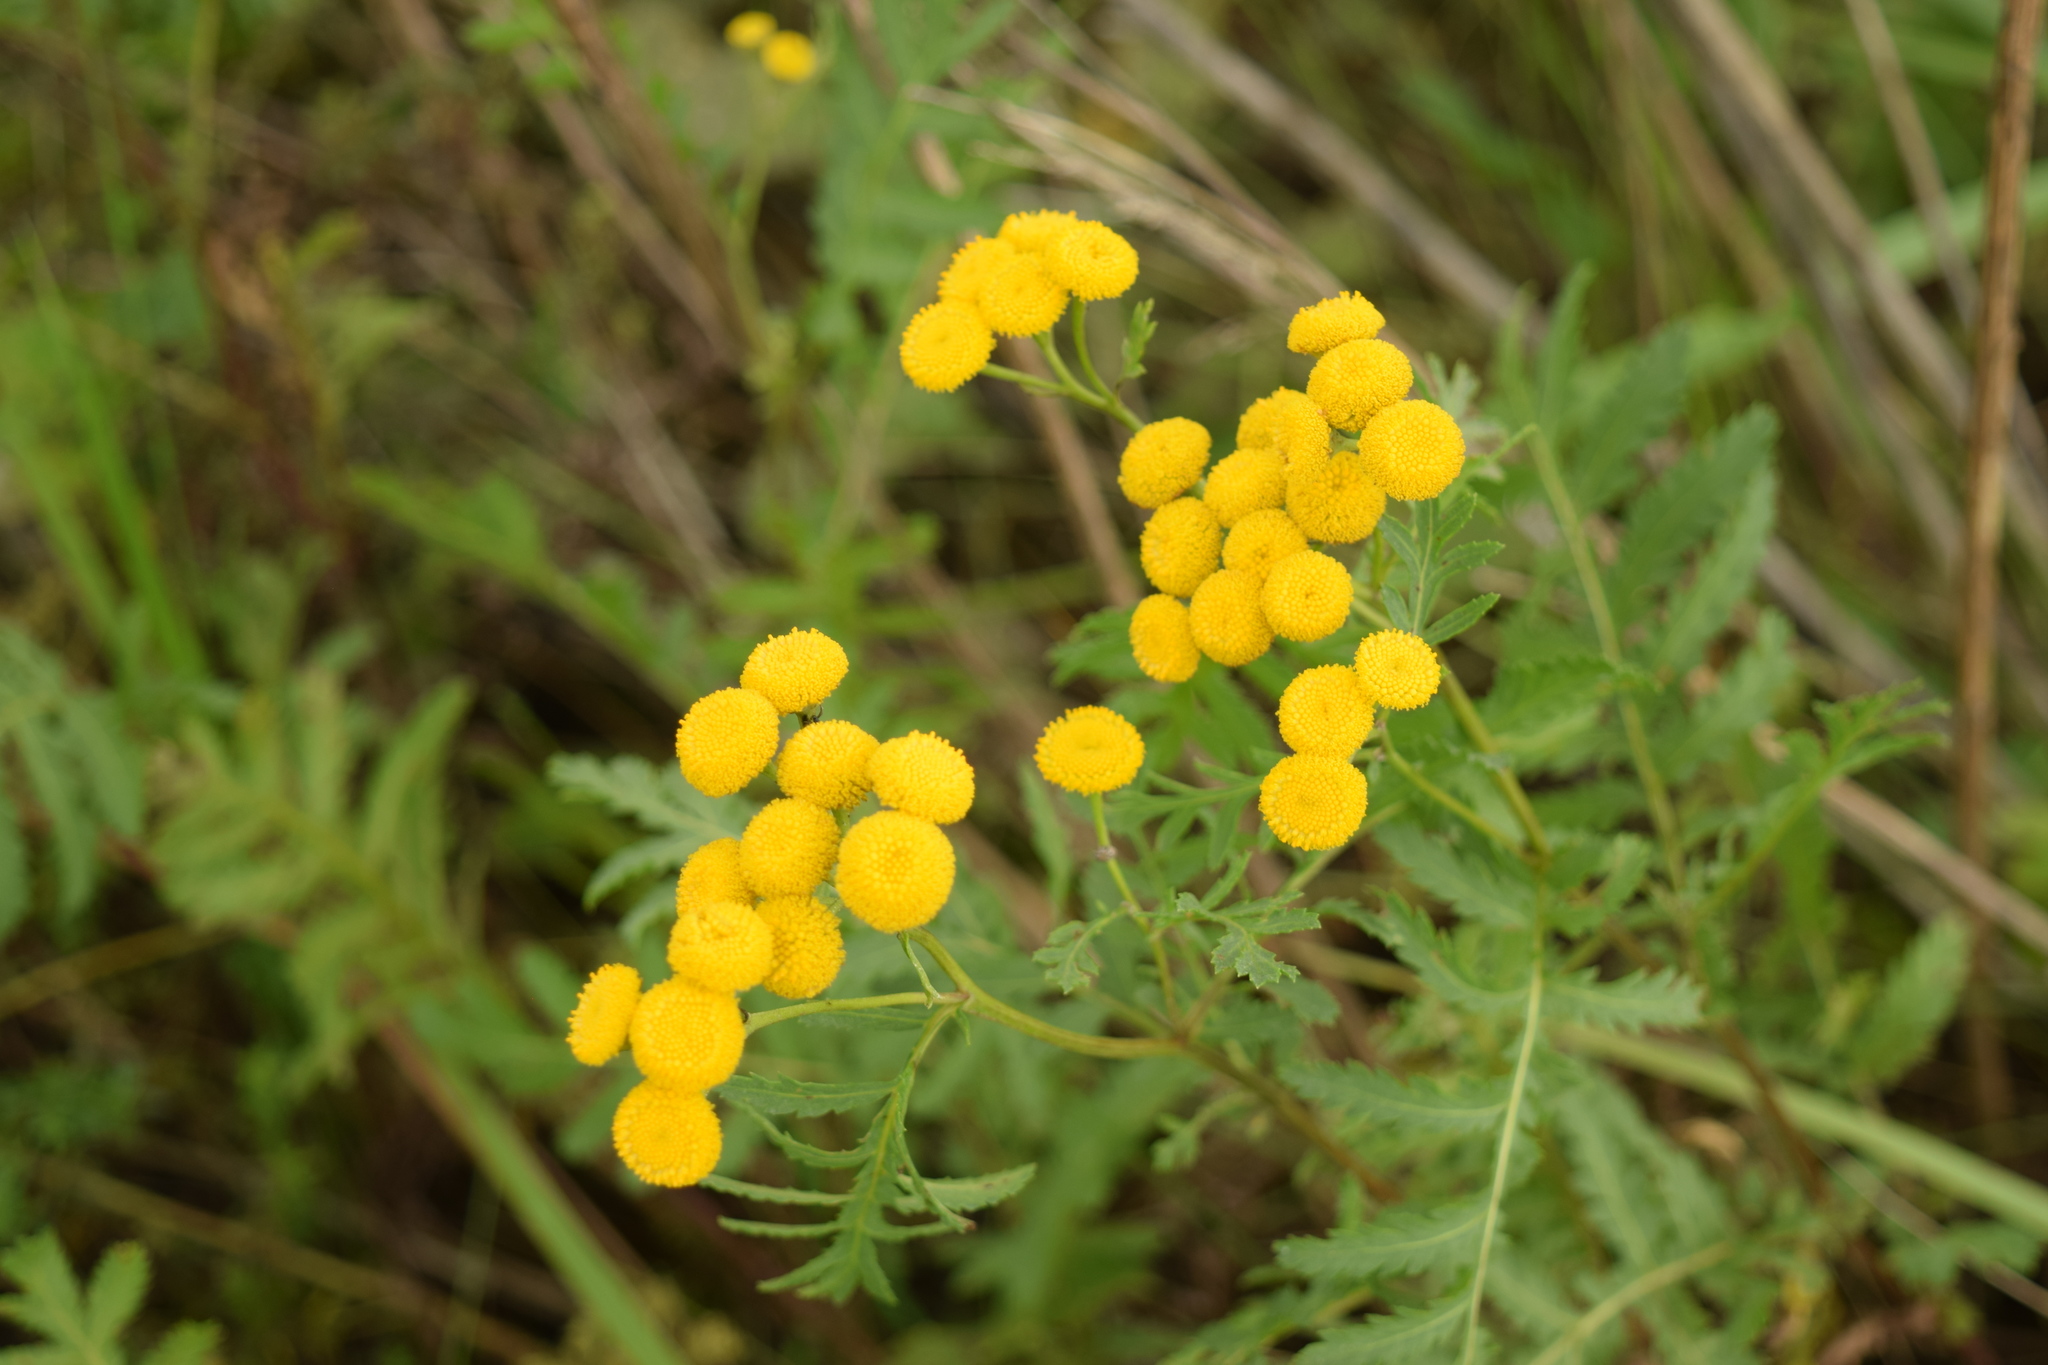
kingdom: Plantae
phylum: Tracheophyta
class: Magnoliopsida
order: Asterales
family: Asteraceae
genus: Tanacetum
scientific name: Tanacetum vulgare
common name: Common tansy
